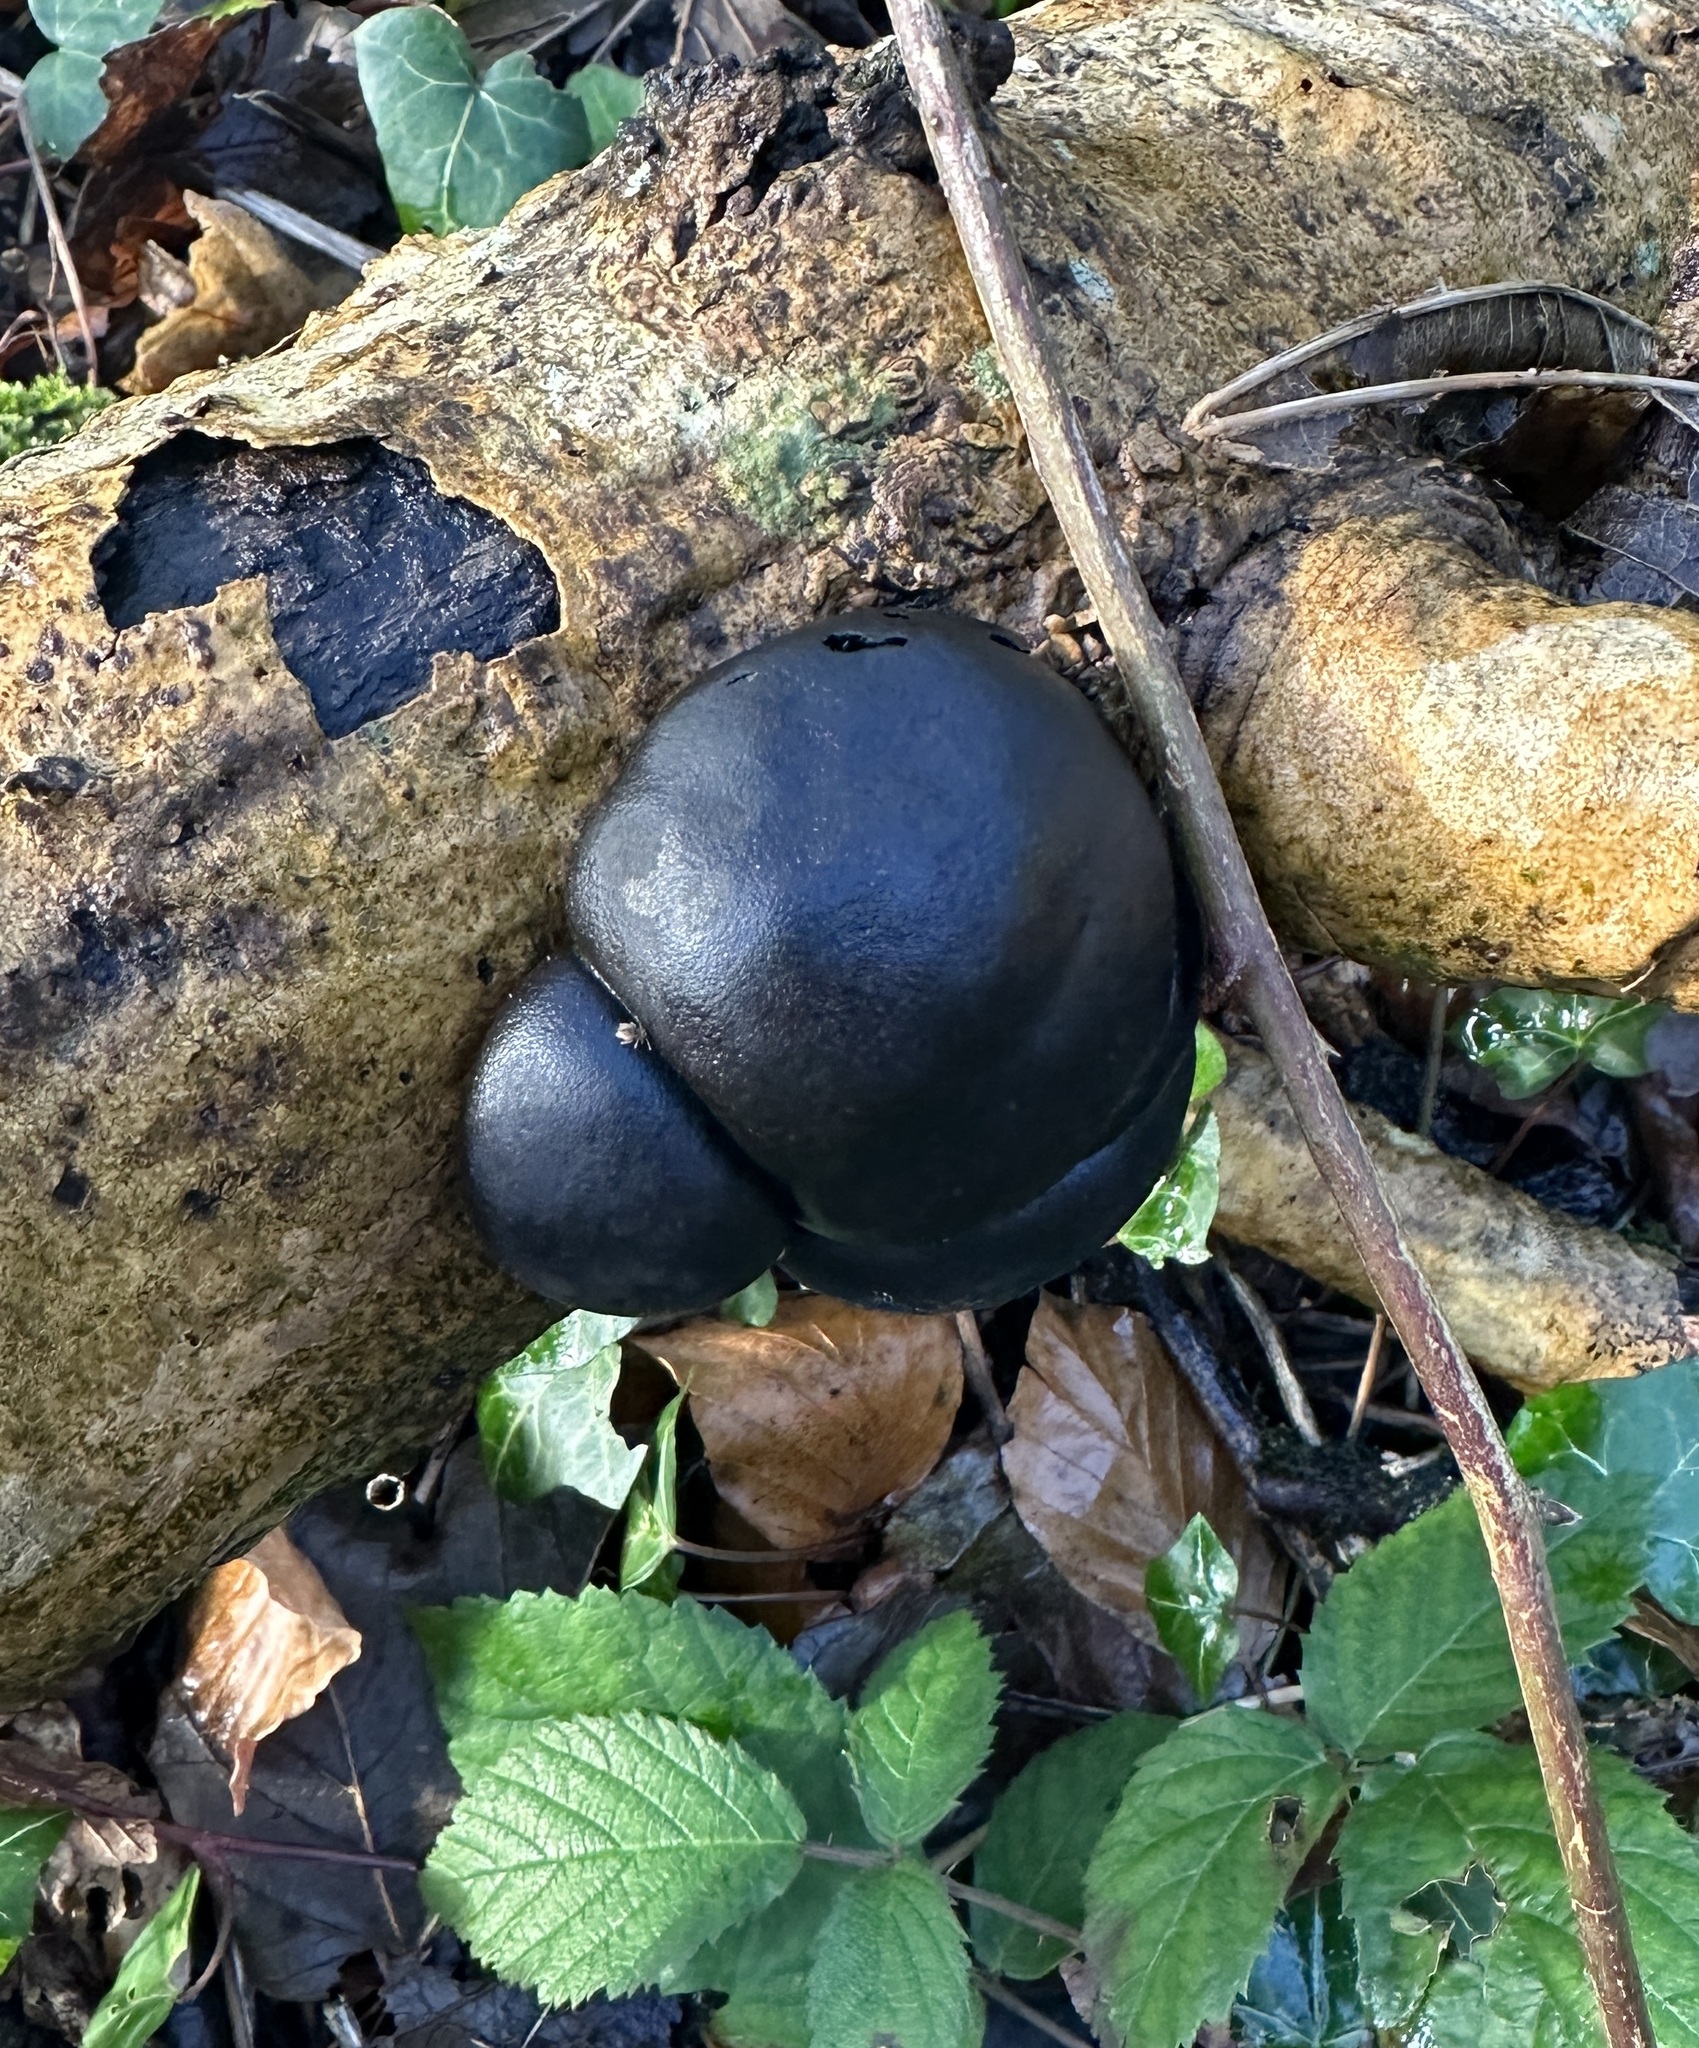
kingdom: Fungi
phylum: Ascomycota
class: Sordariomycetes
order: Xylariales
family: Hypoxylaceae
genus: Daldinia
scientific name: Daldinia concentrica
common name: Cramp balls
